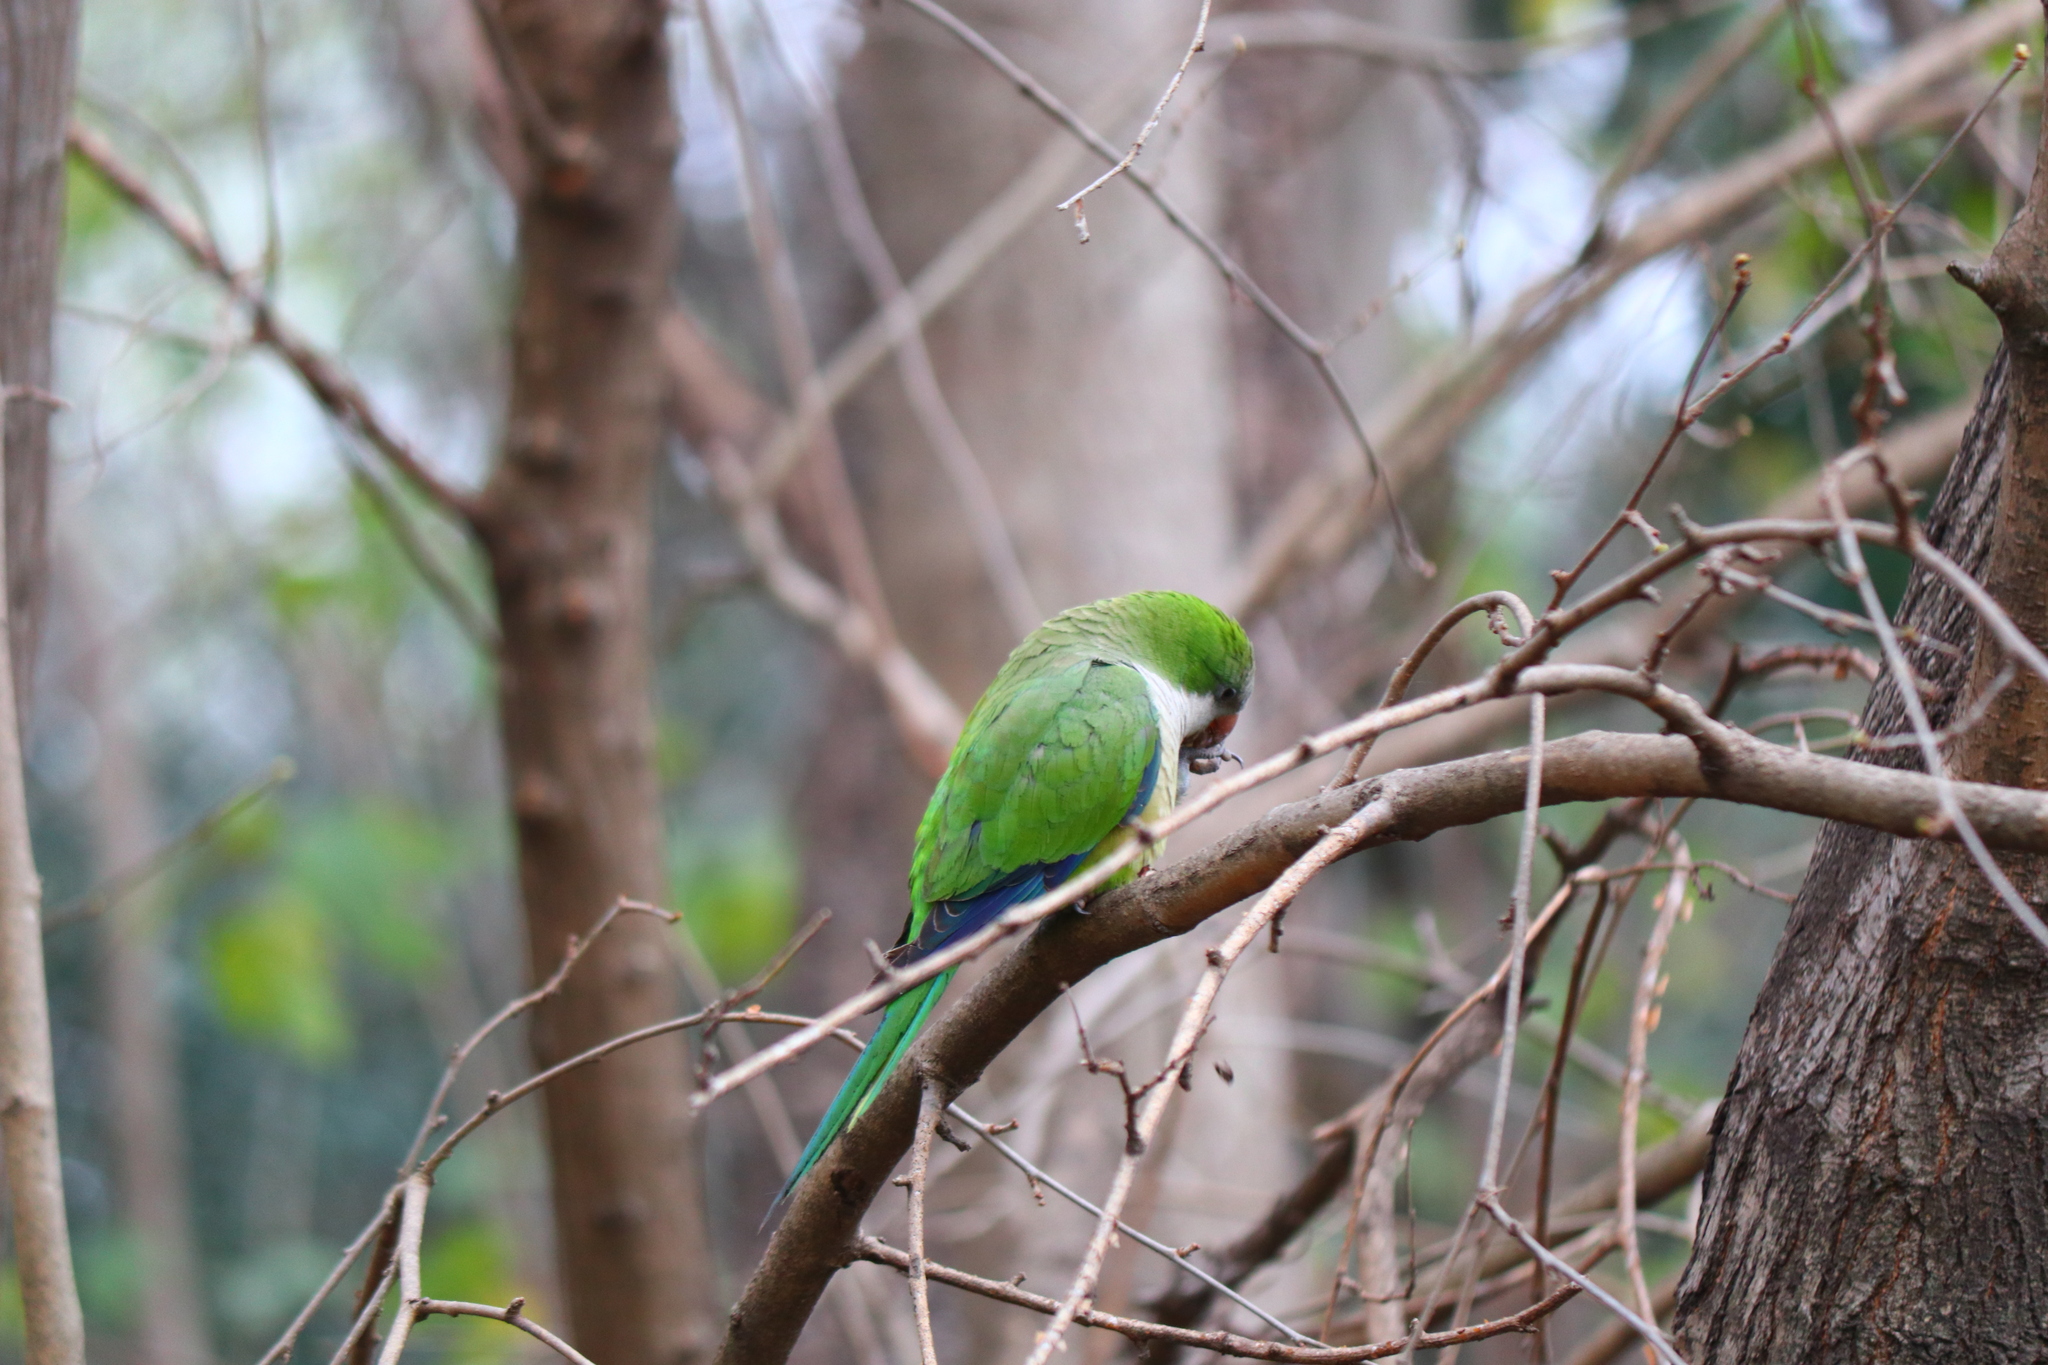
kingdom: Animalia
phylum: Chordata
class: Aves
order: Psittaciformes
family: Psittacidae
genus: Myiopsitta
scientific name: Myiopsitta monachus
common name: Monk parakeet
